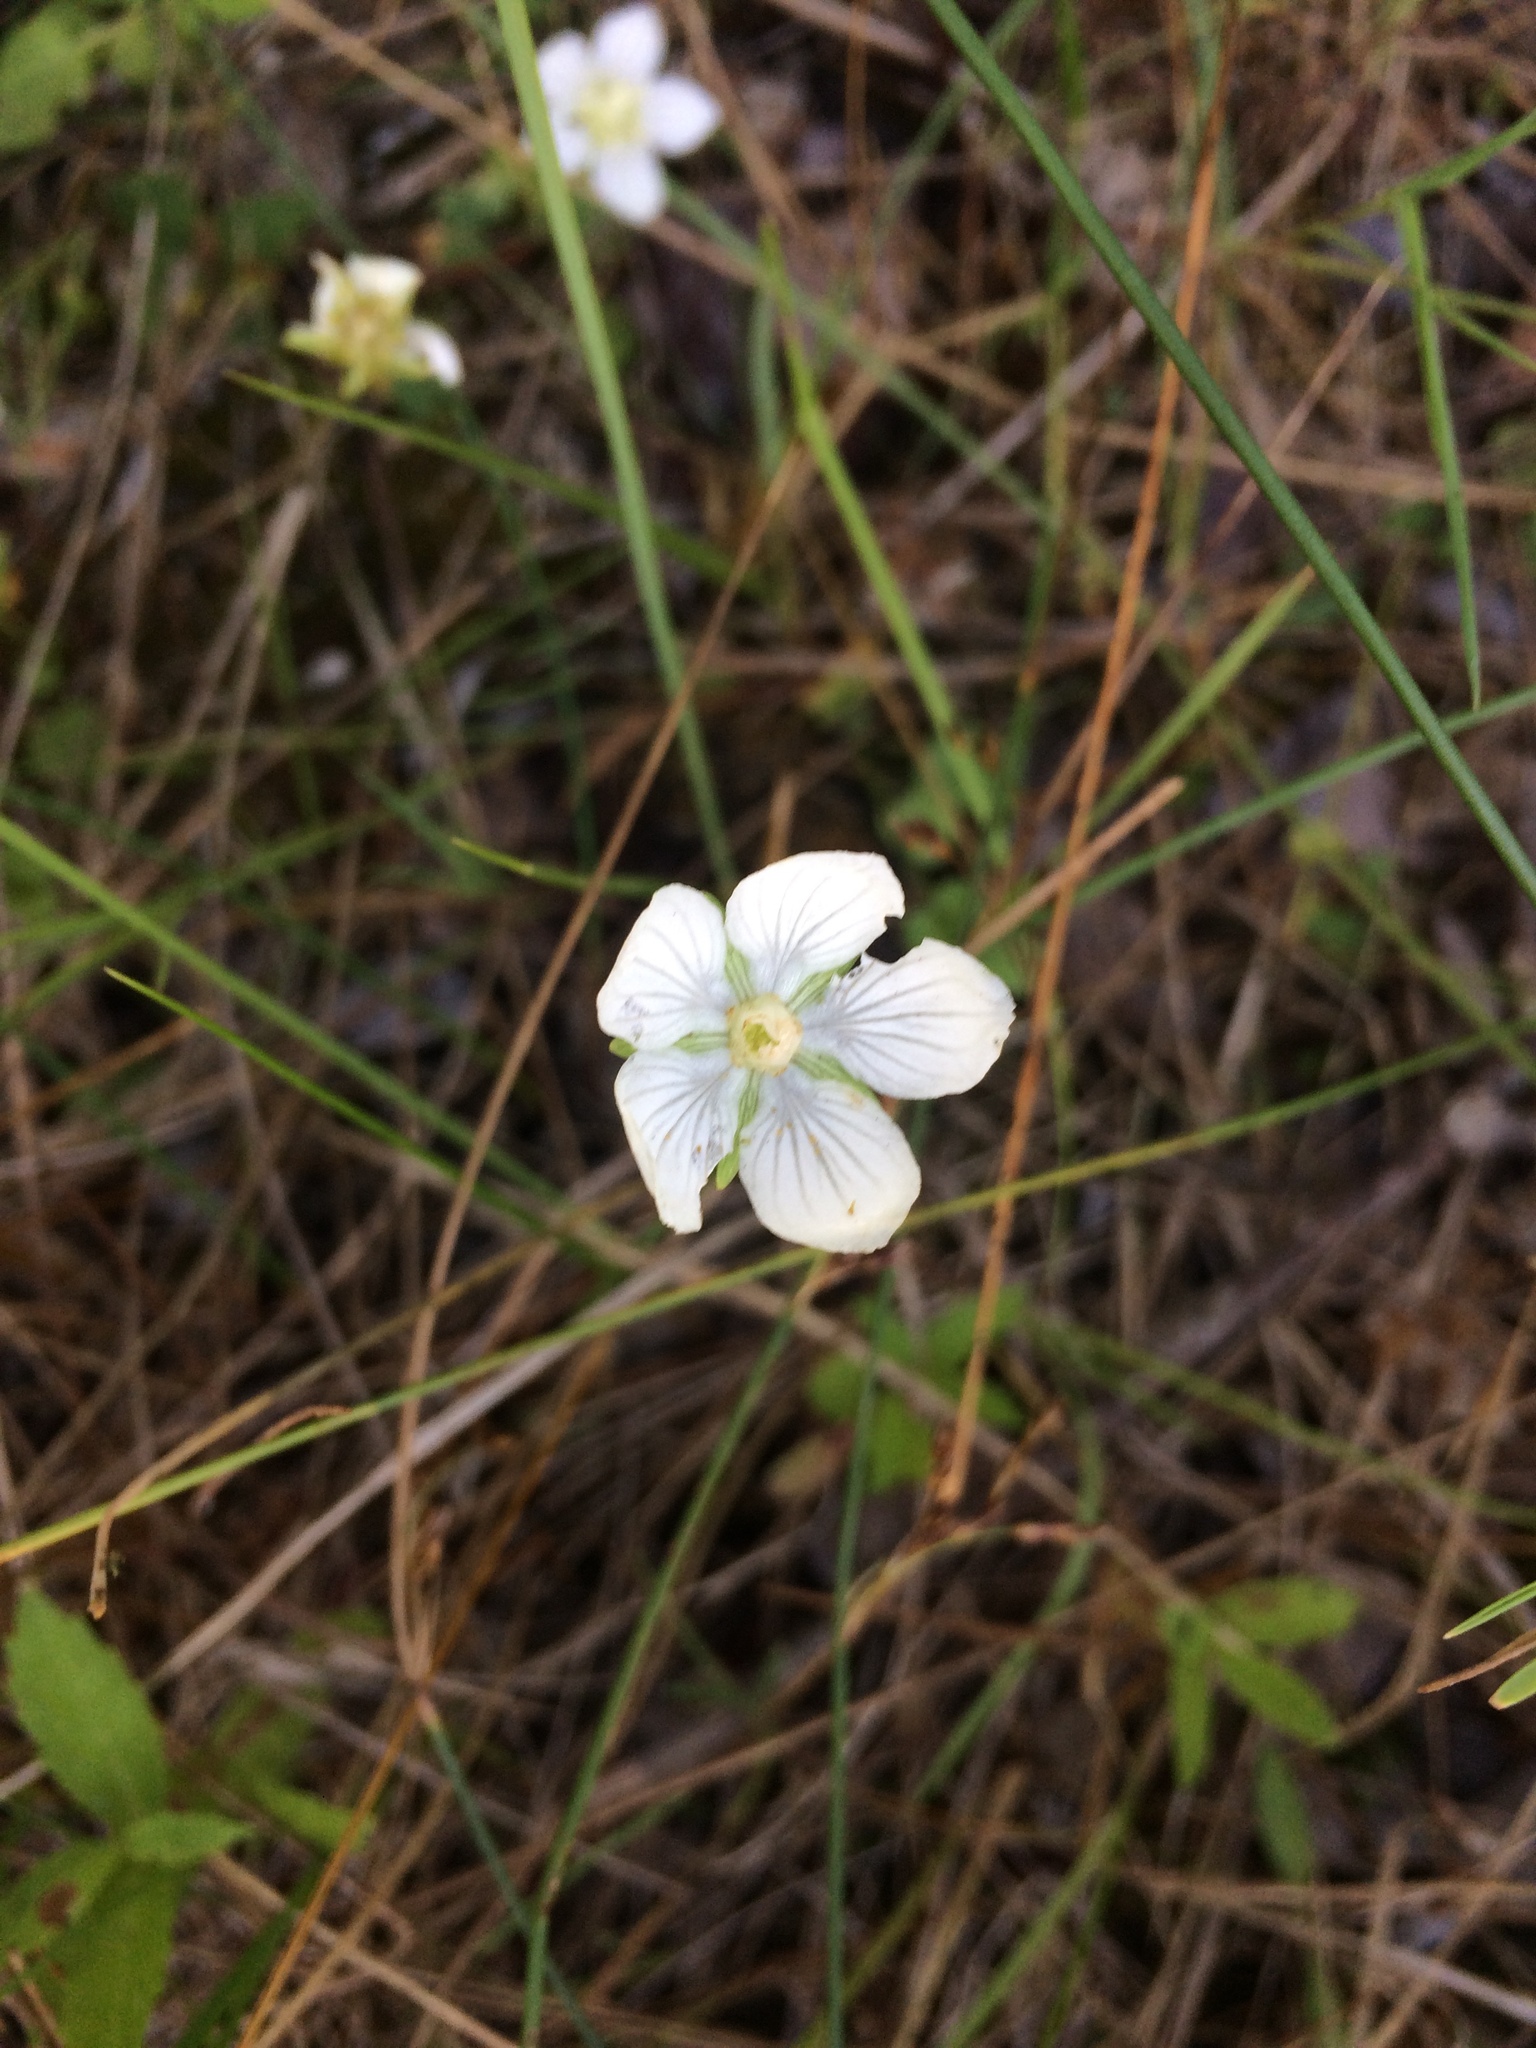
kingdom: Plantae
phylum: Tracheophyta
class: Magnoliopsida
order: Celastrales
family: Parnassiaceae
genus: Parnassia
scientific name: Parnassia palustris
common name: Grass-of-parnassus
